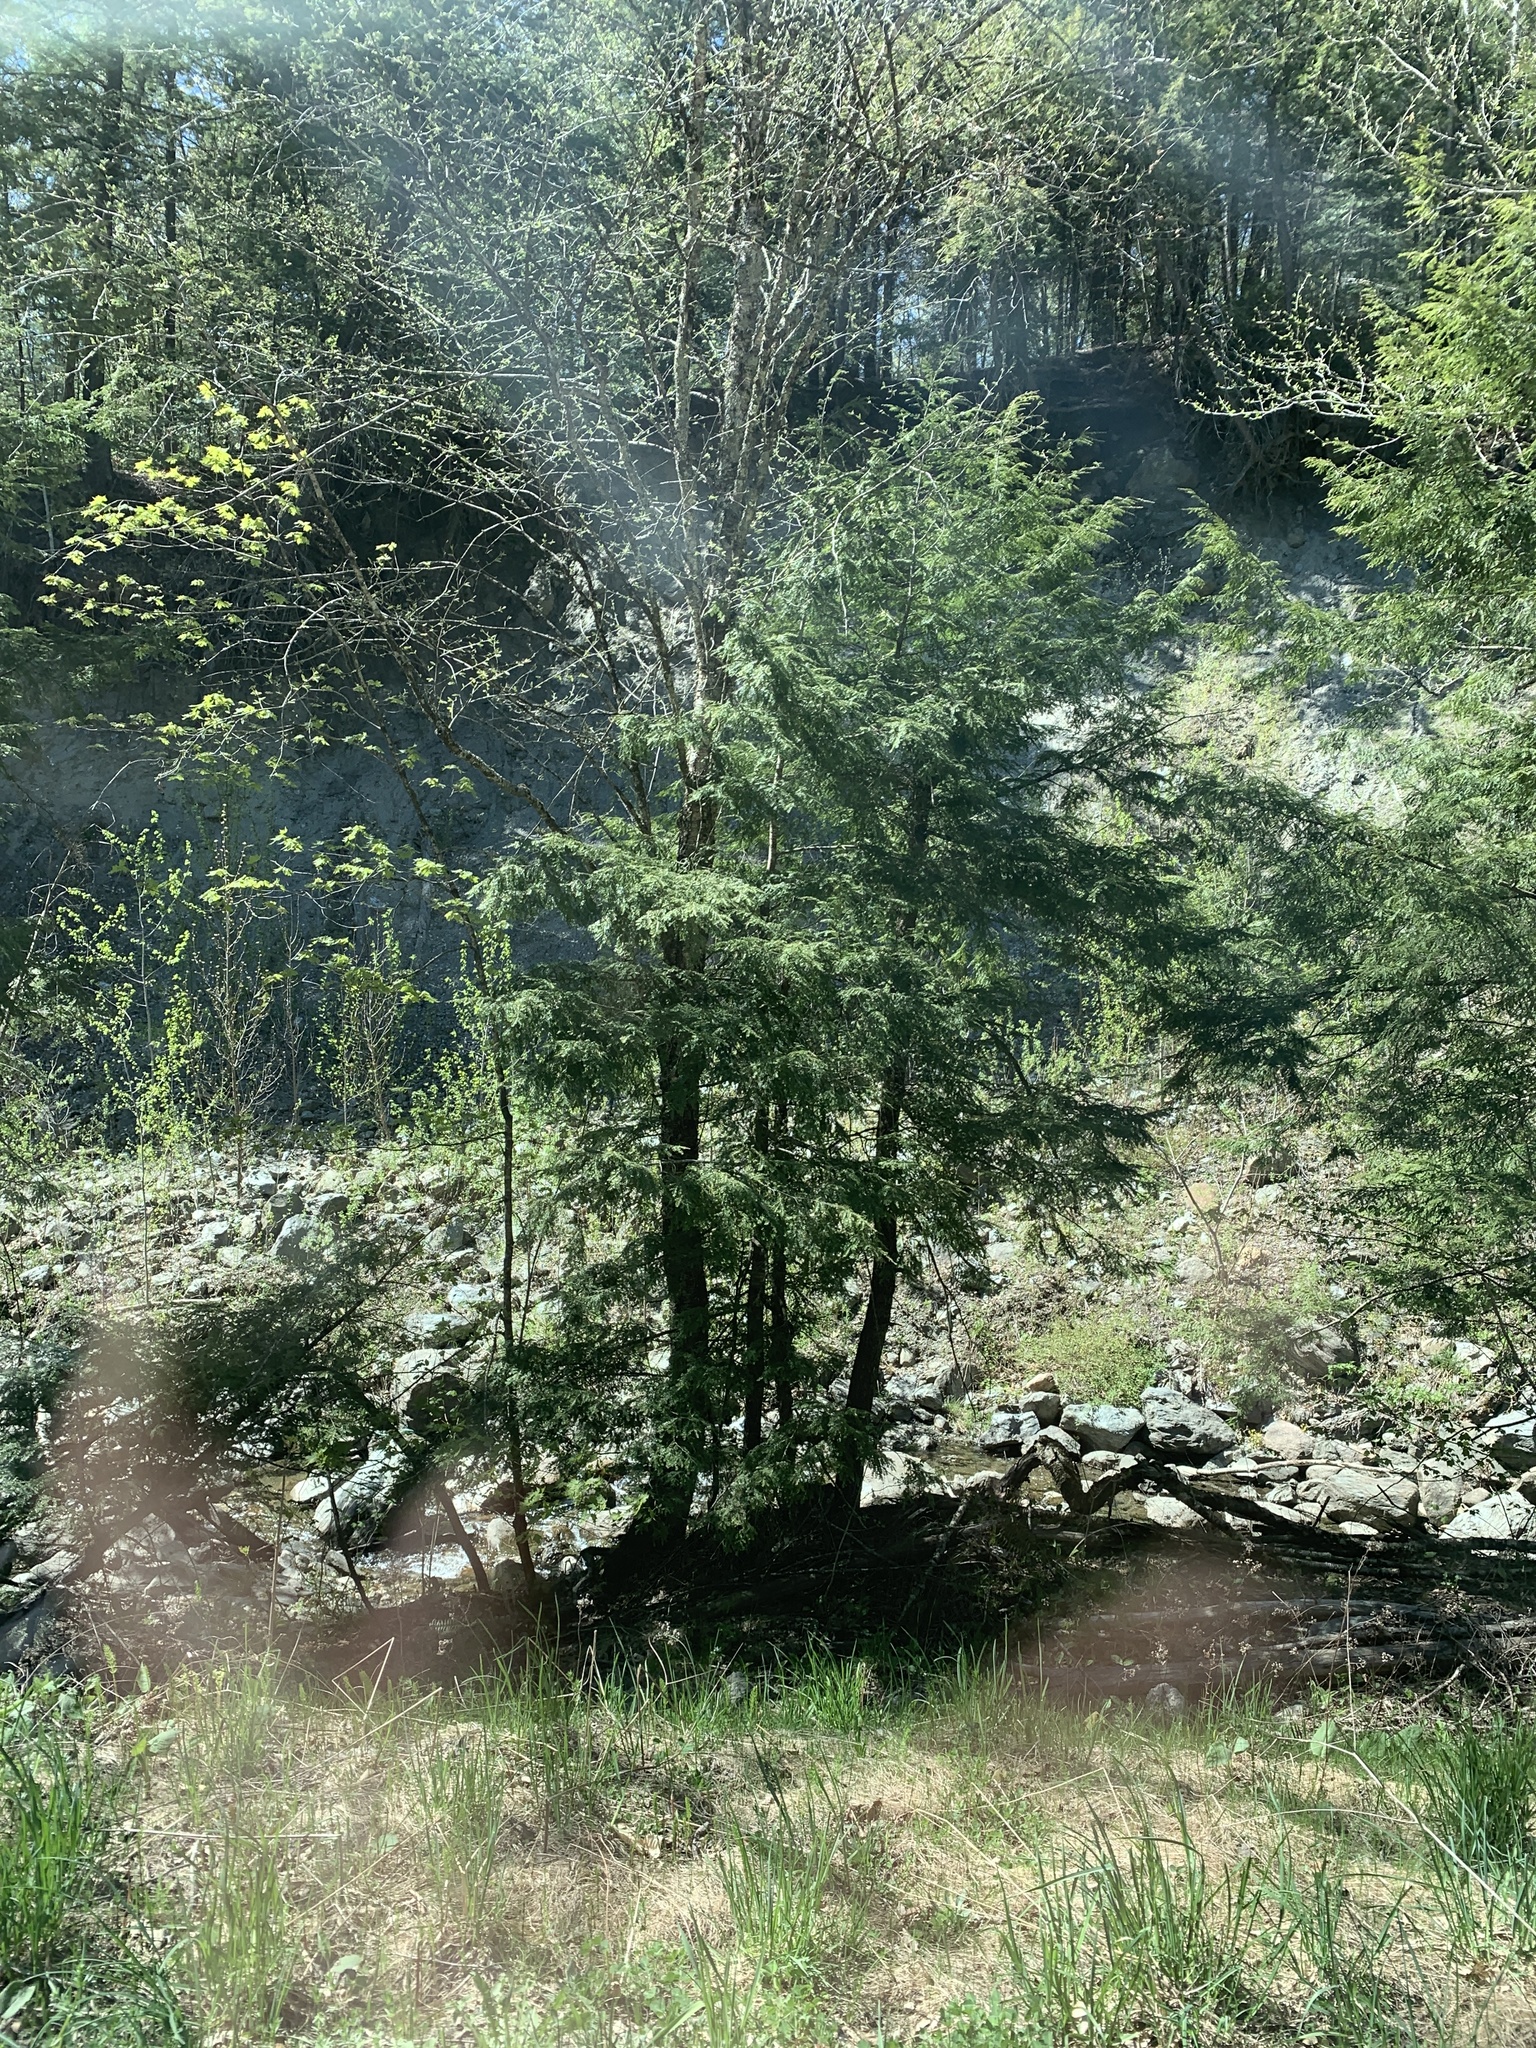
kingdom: Plantae
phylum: Tracheophyta
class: Pinopsida
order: Pinales
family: Pinaceae
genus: Tsuga
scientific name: Tsuga canadensis
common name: Eastern hemlock
